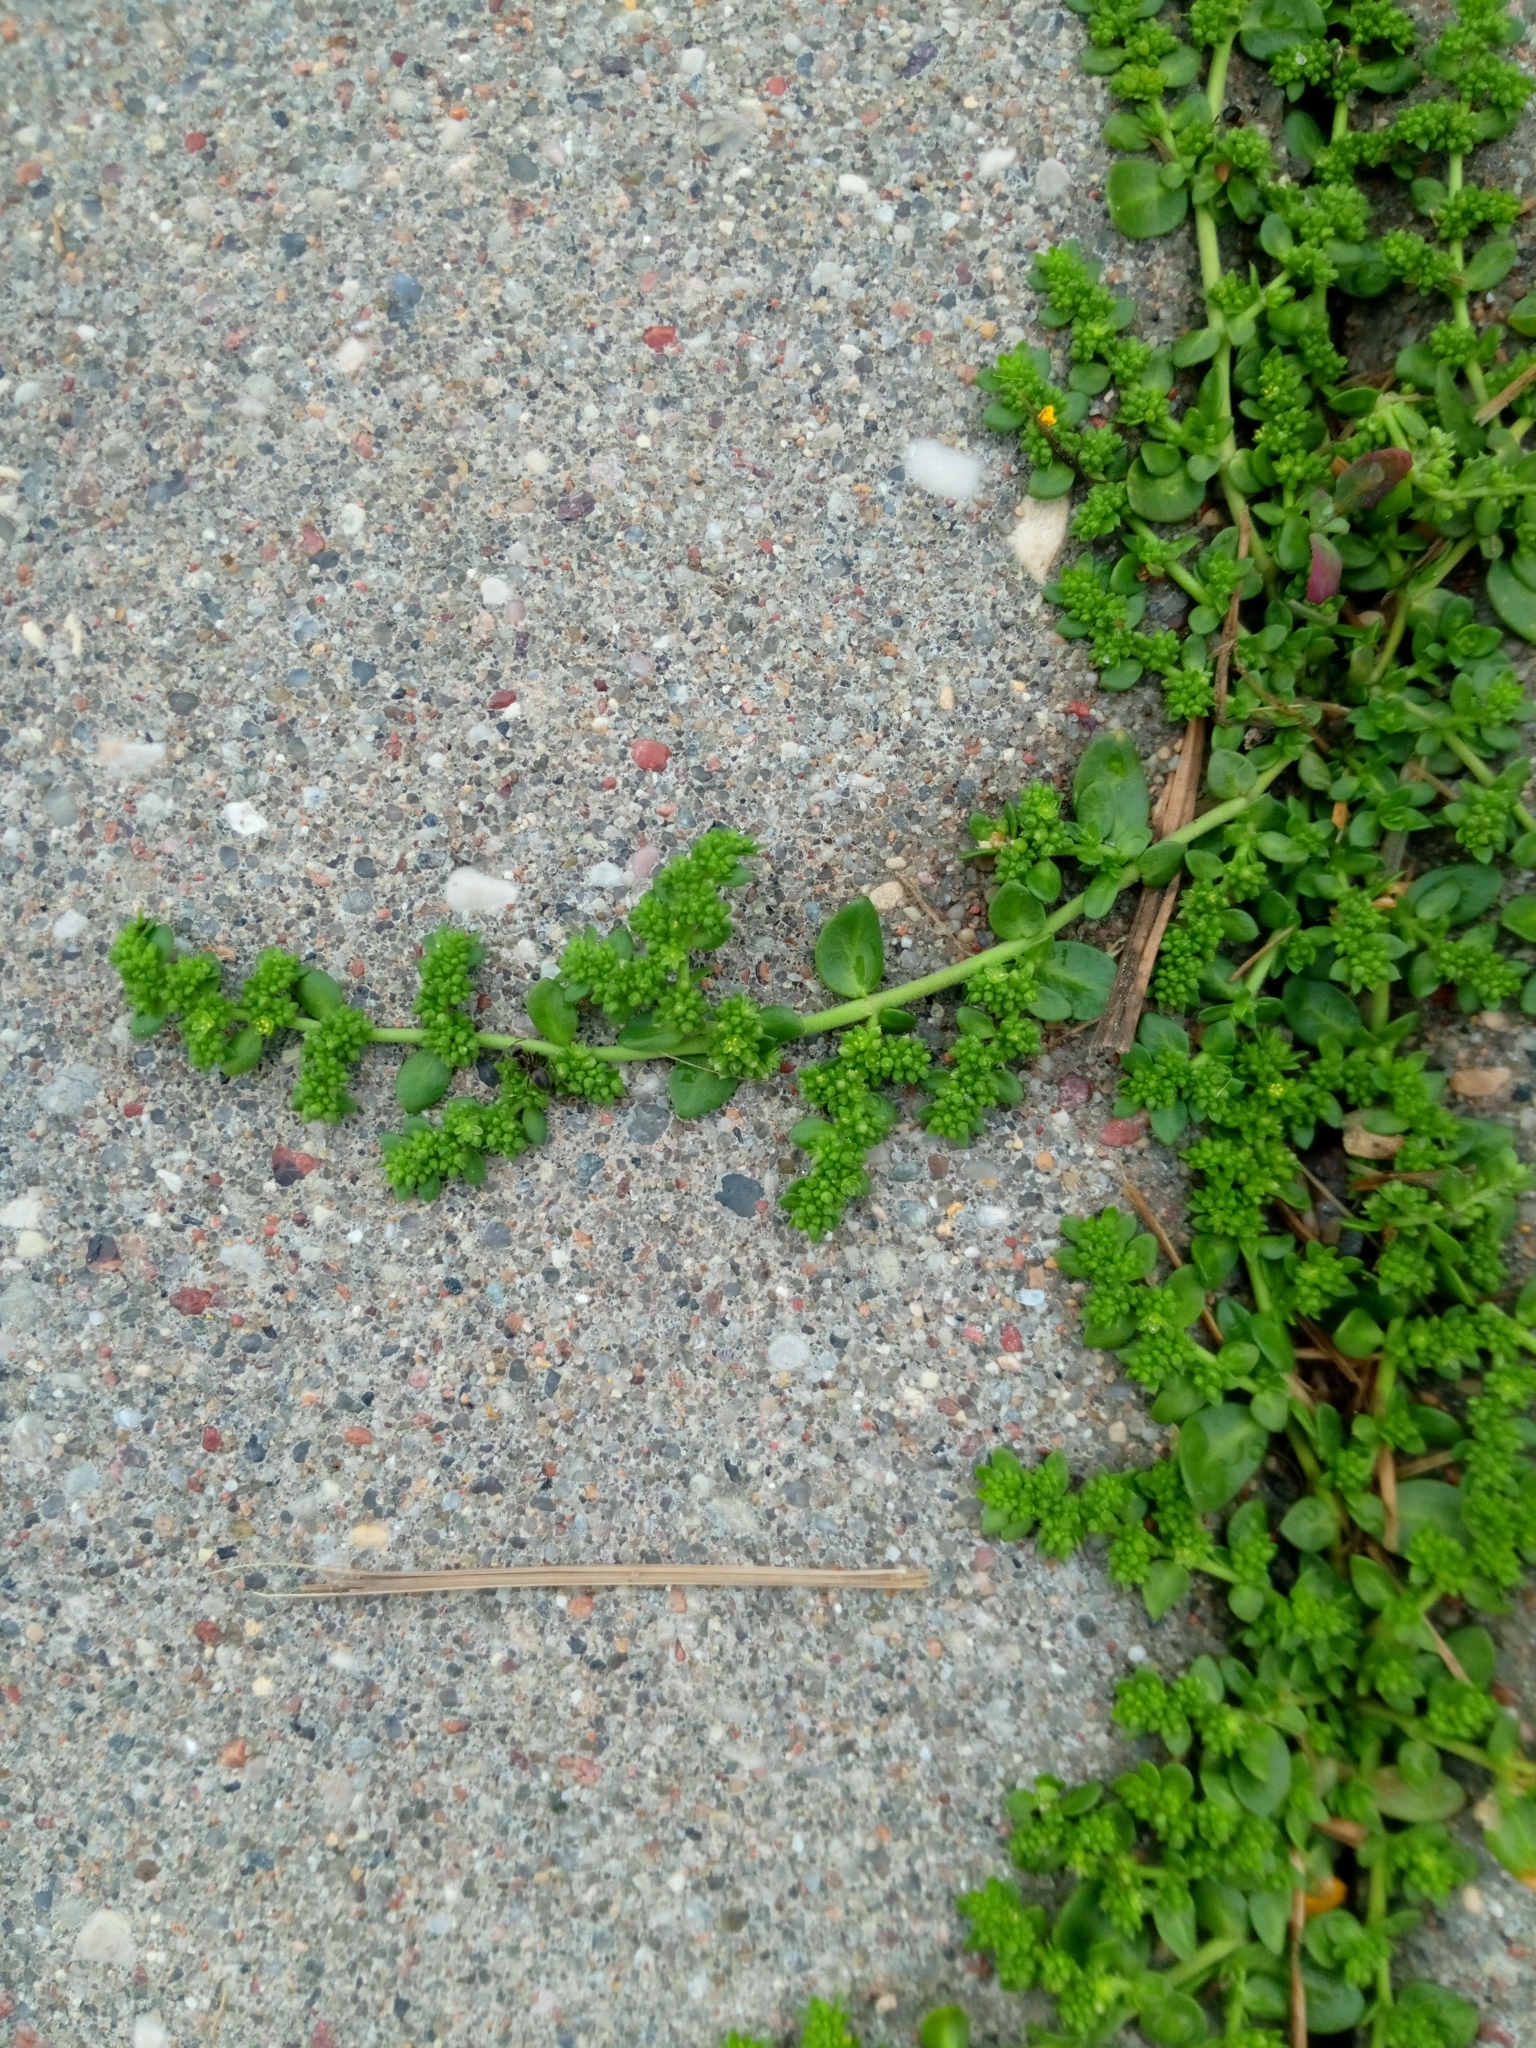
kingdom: Plantae
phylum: Tracheophyta
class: Magnoliopsida
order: Caryophyllales
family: Caryophyllaceae
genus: Herniaria
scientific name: Herniaria glabra
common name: Smooth rupturewort
